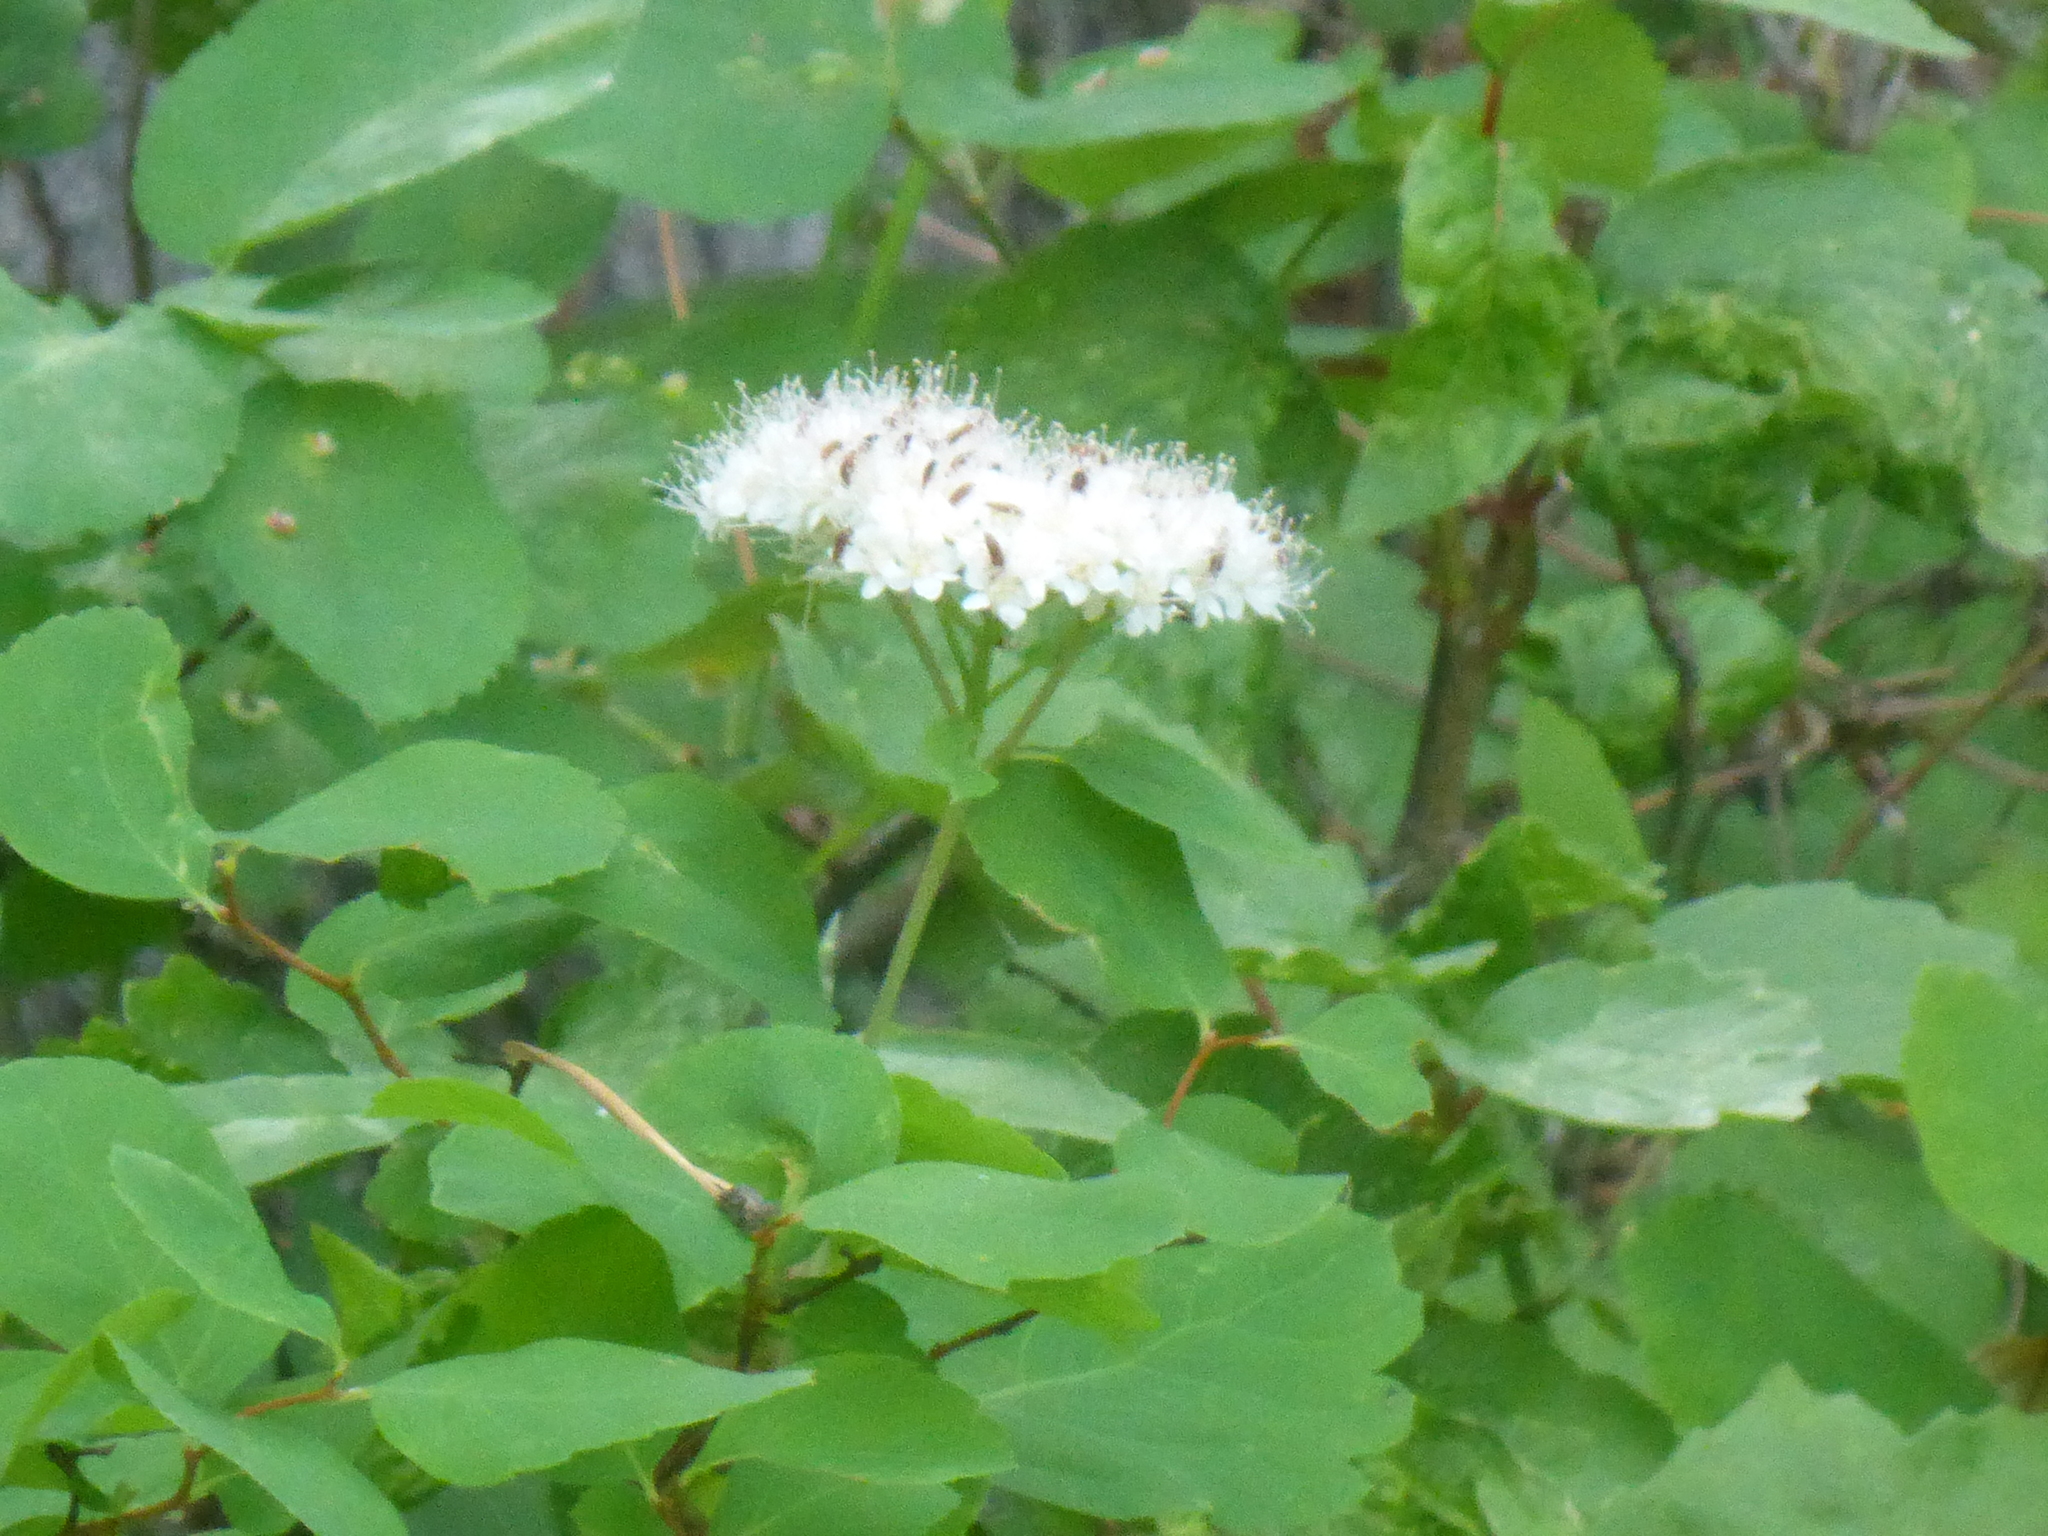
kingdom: Plantae
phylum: Tracheophyta
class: Magnoliopsida
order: Rosales
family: Rosaceae
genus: Spiraea
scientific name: Spiraea lucida
